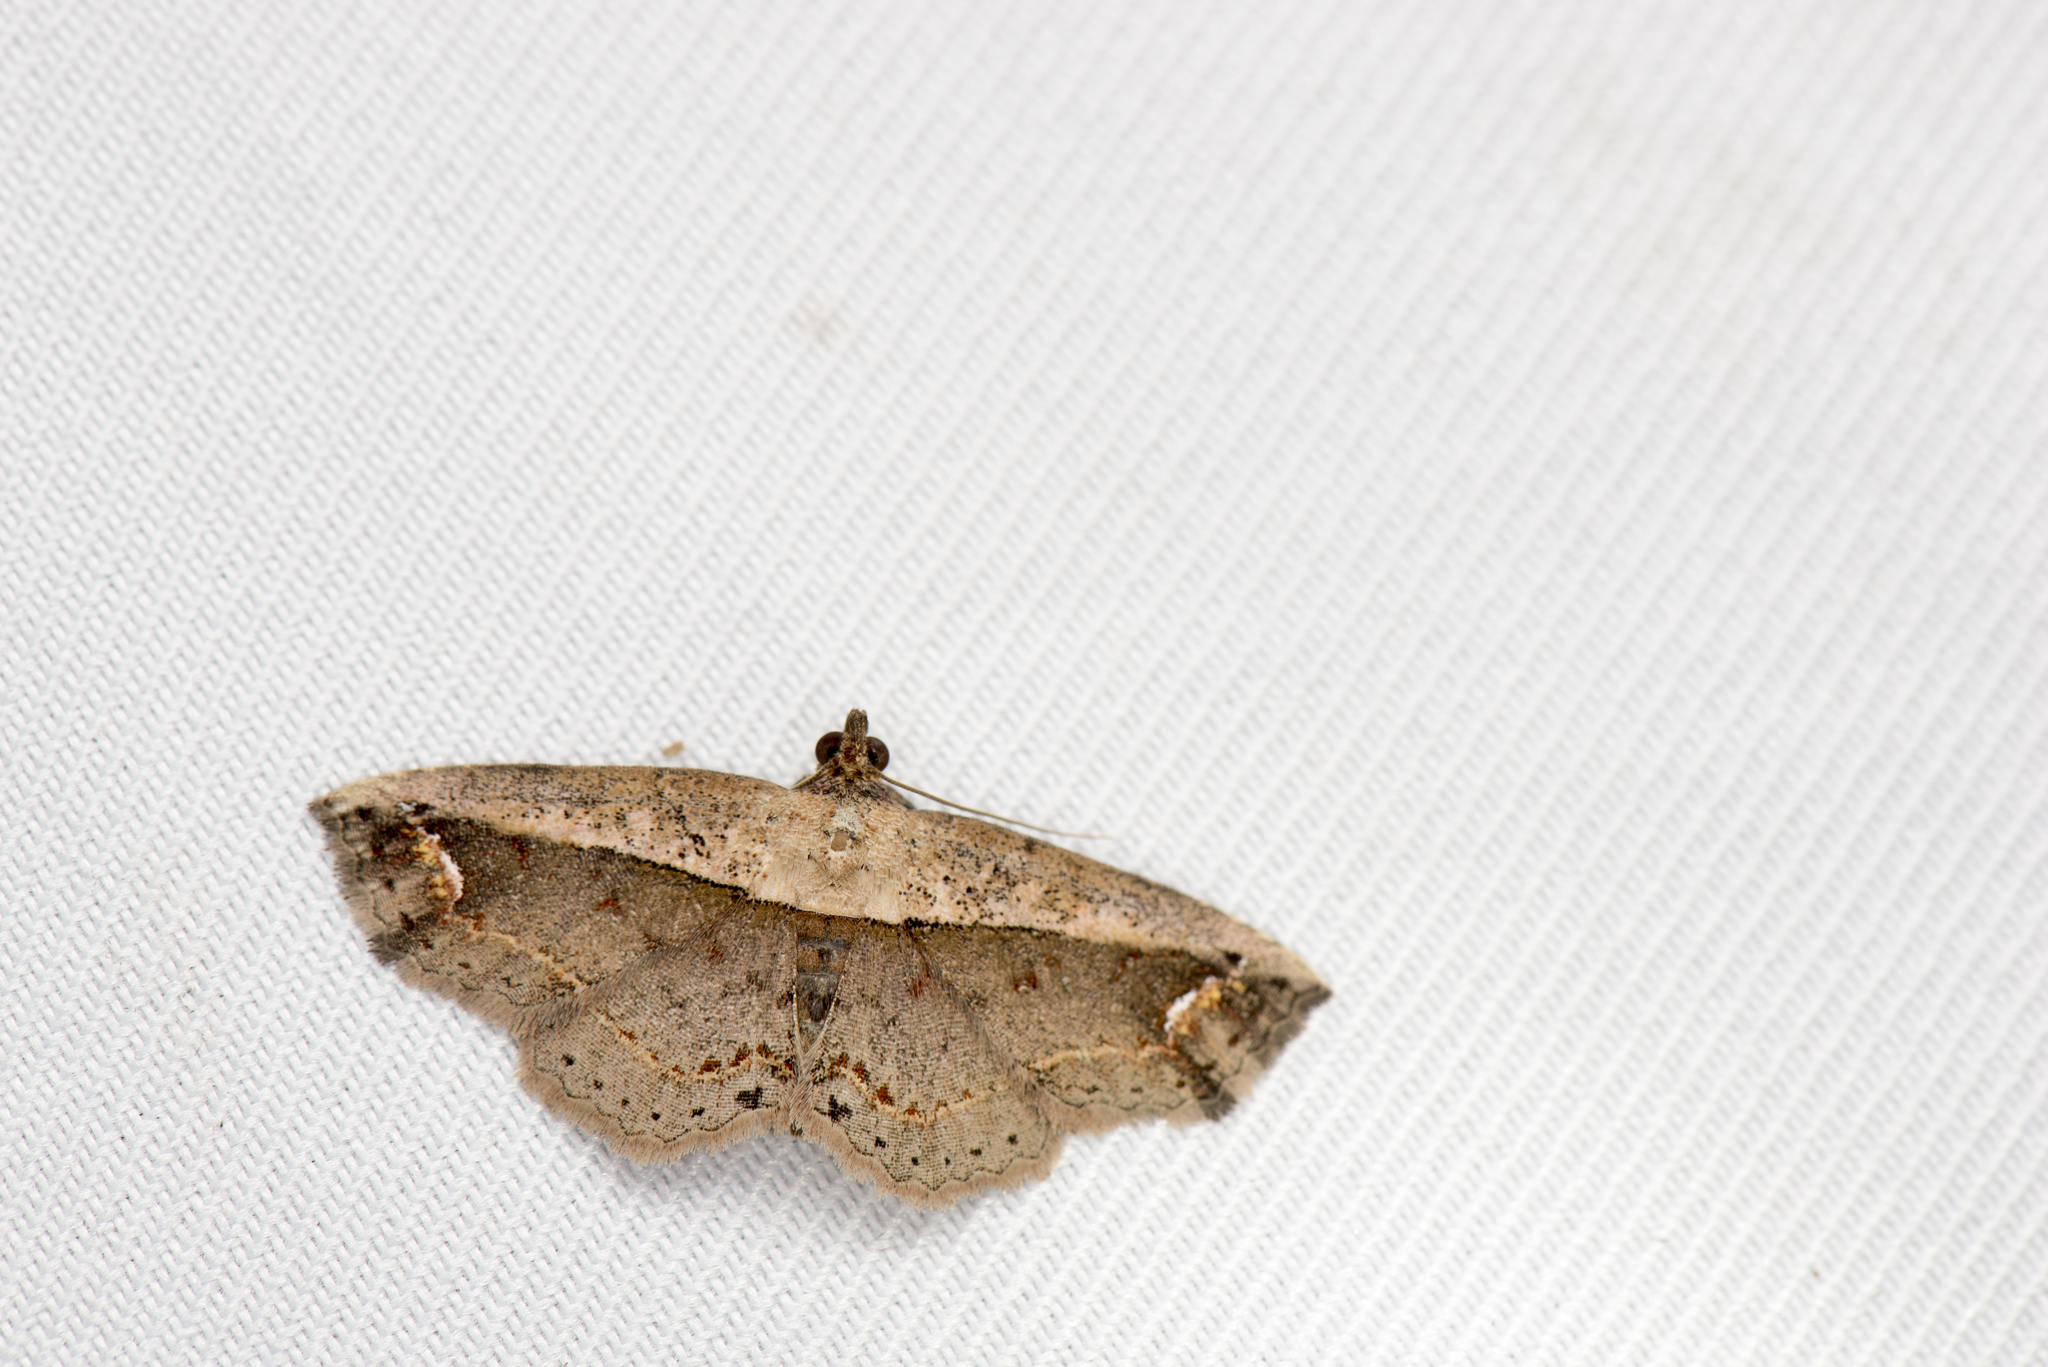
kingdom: Animalia
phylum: Arthropoda
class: Insecta
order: Lepidoptera
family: Noctuidae
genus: Eugnathia
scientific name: Eugnathia lunifera
